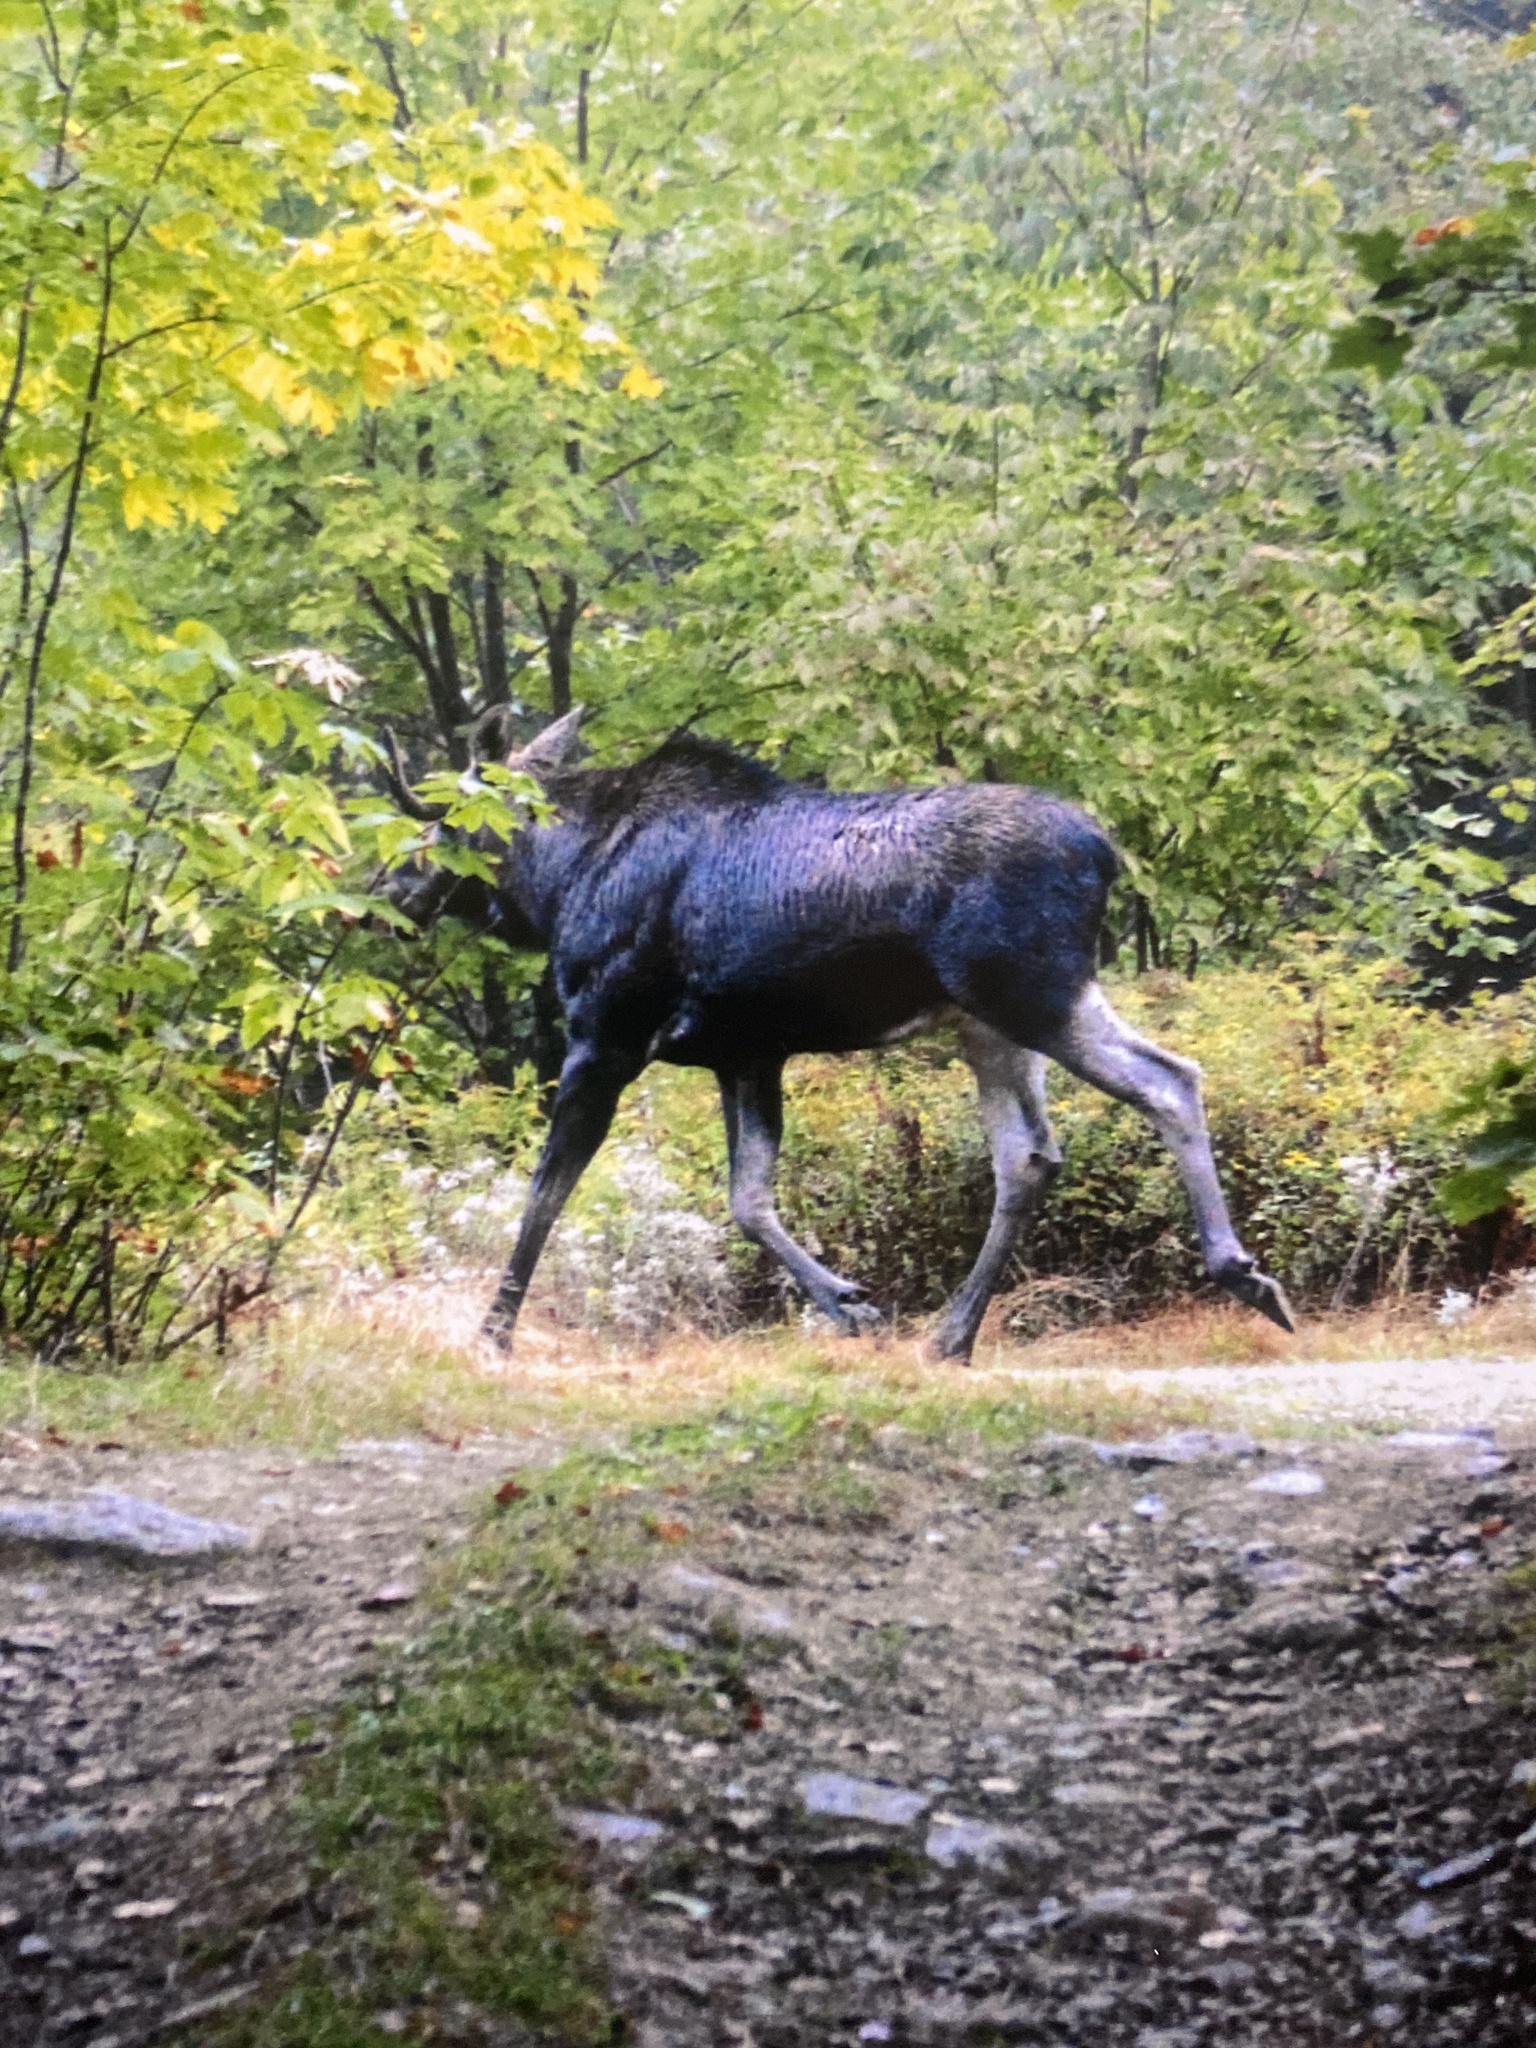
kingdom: Animalia
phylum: Chordata
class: Mammalia
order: Artiodactyla
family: Cervidae
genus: Alces
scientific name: Alces americanus
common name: Moose
